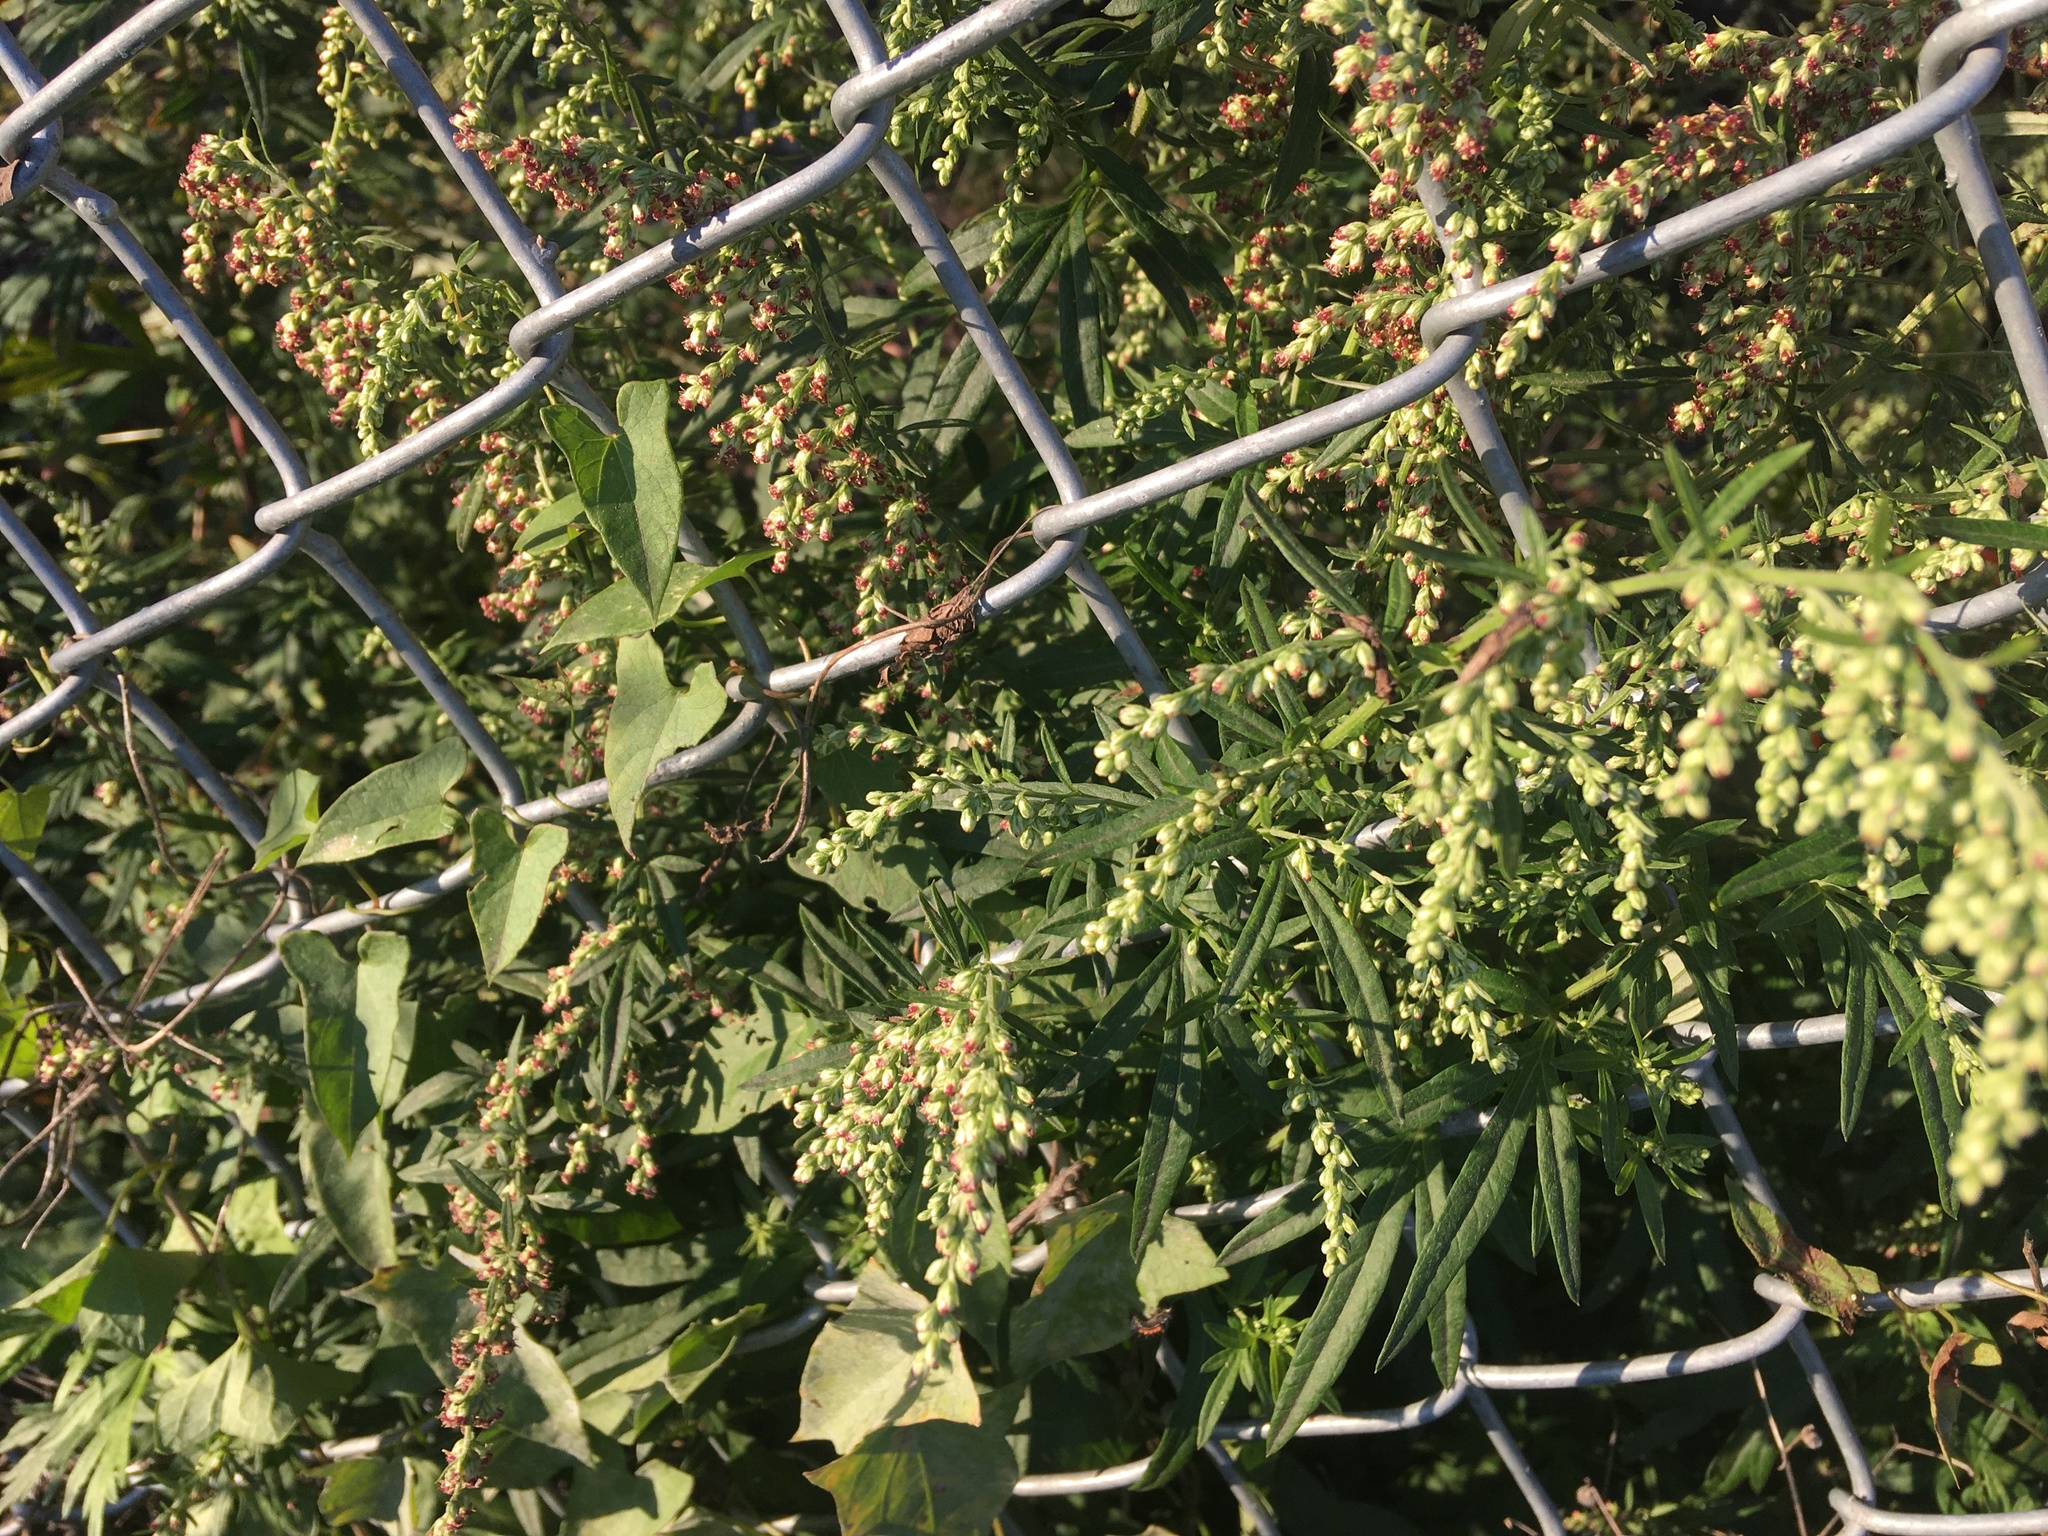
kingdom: Plantae
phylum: Tracheophyta
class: Magnoliopsida
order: Asterales
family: Asteraceae
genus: Artemisia
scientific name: Artemisia vulgaris
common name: Mugwort
